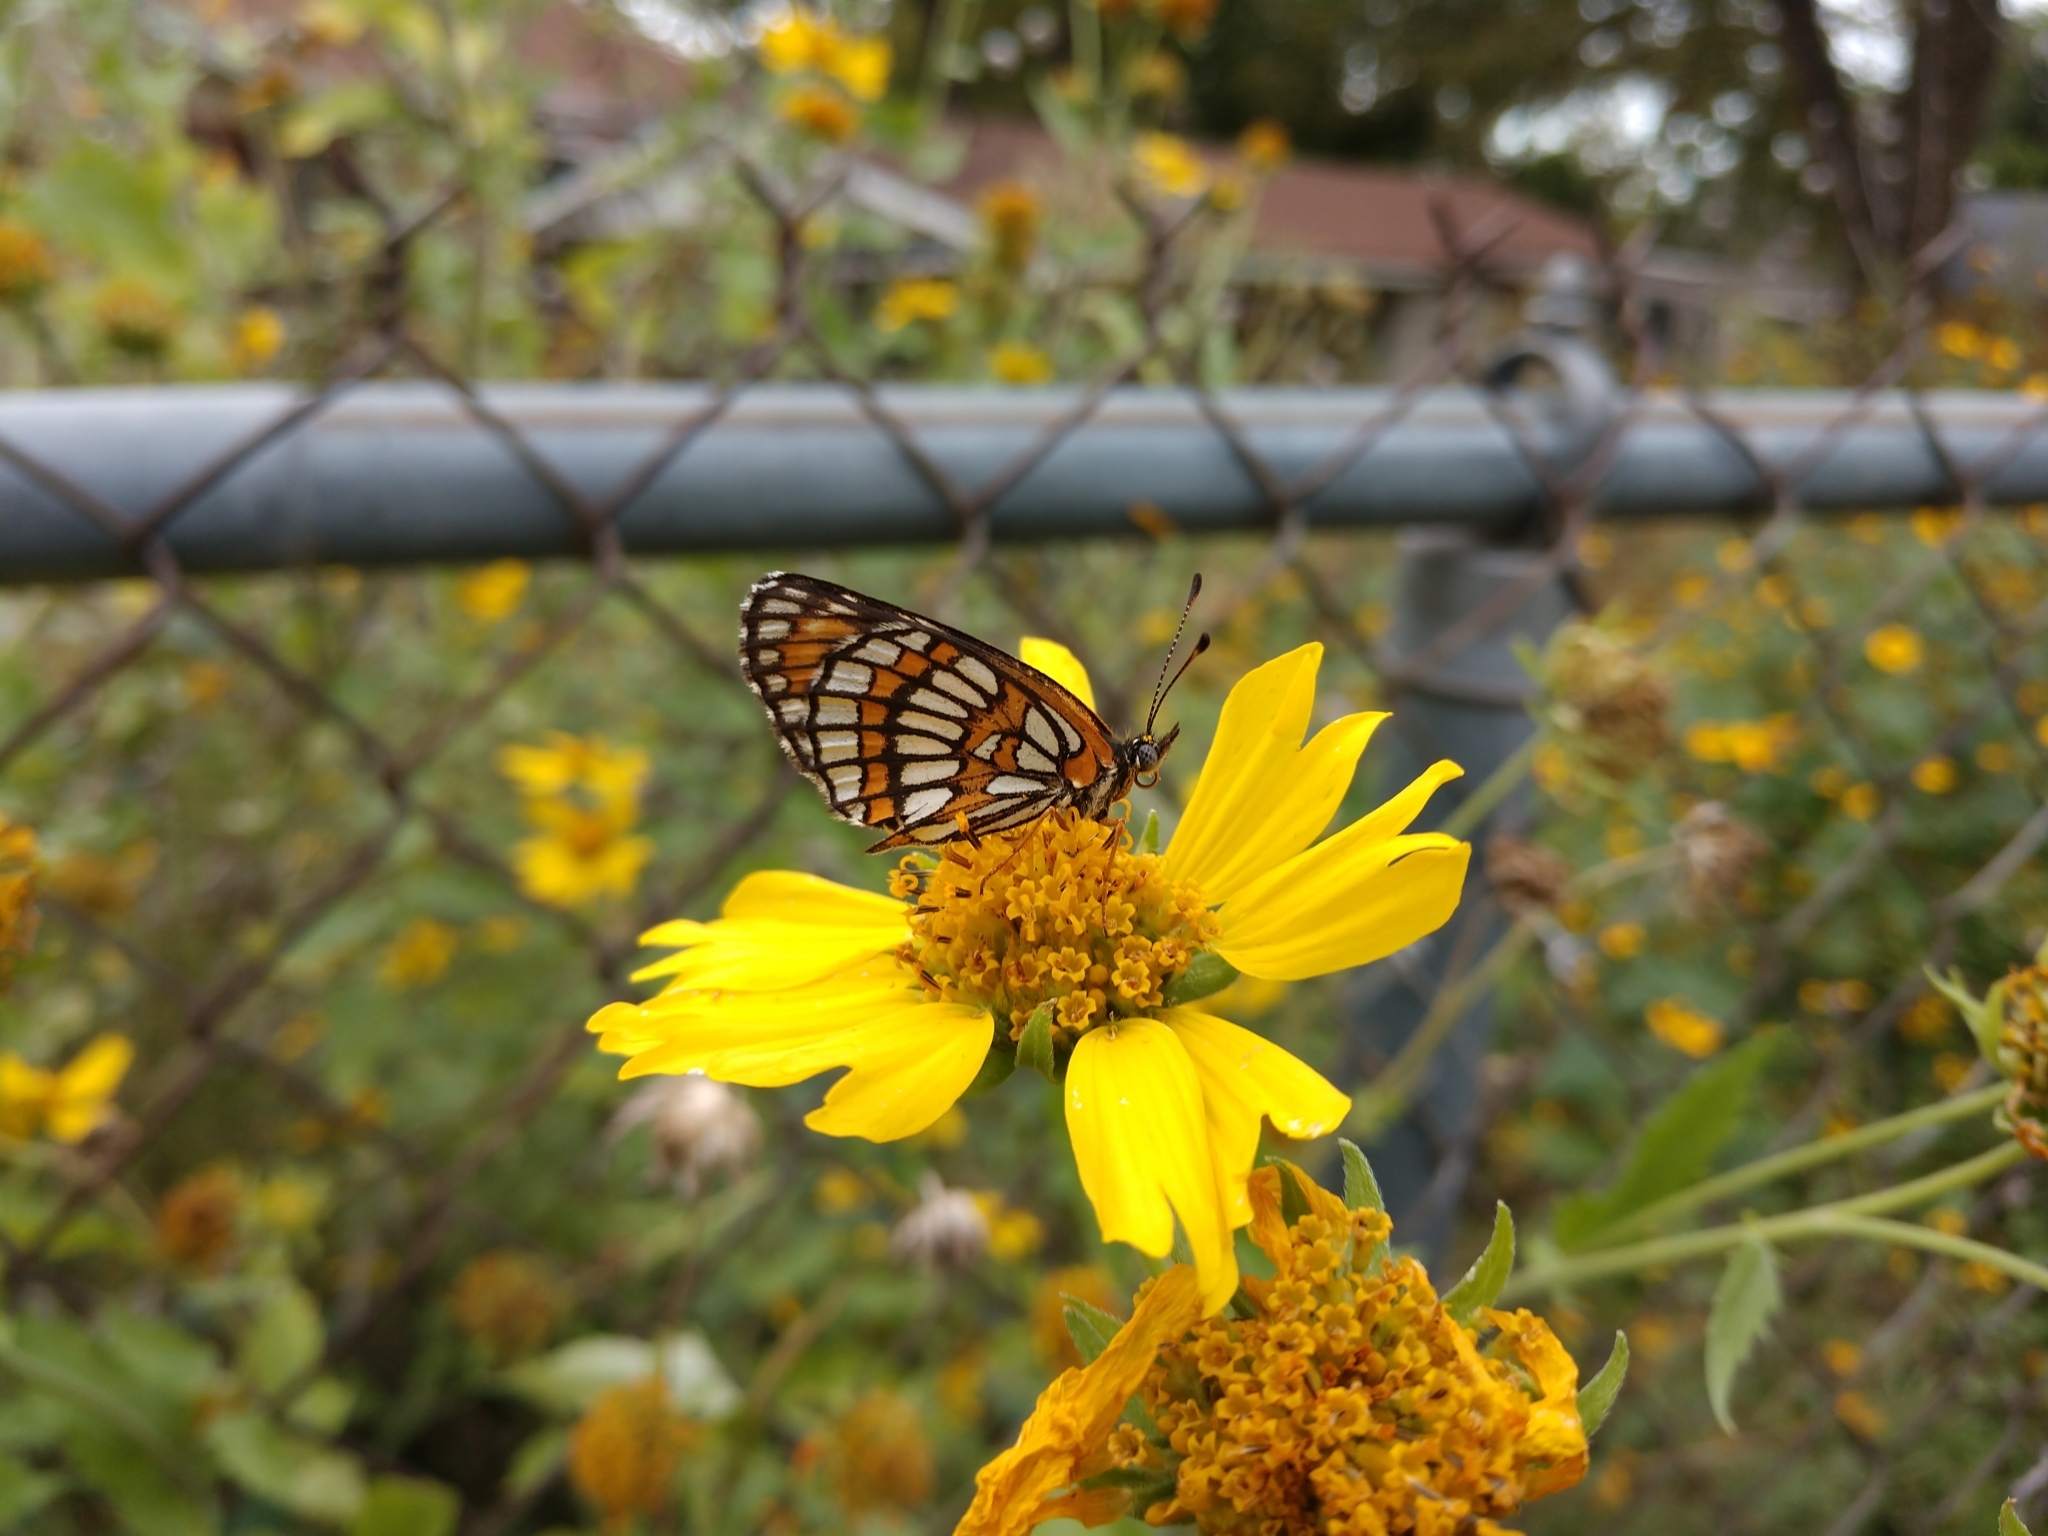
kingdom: Animalia
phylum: Arthropoda
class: Insecta
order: Lepidoptera
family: Nymphalidae
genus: Thessalia
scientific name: Thessalia theona
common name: Nymphalid moth
